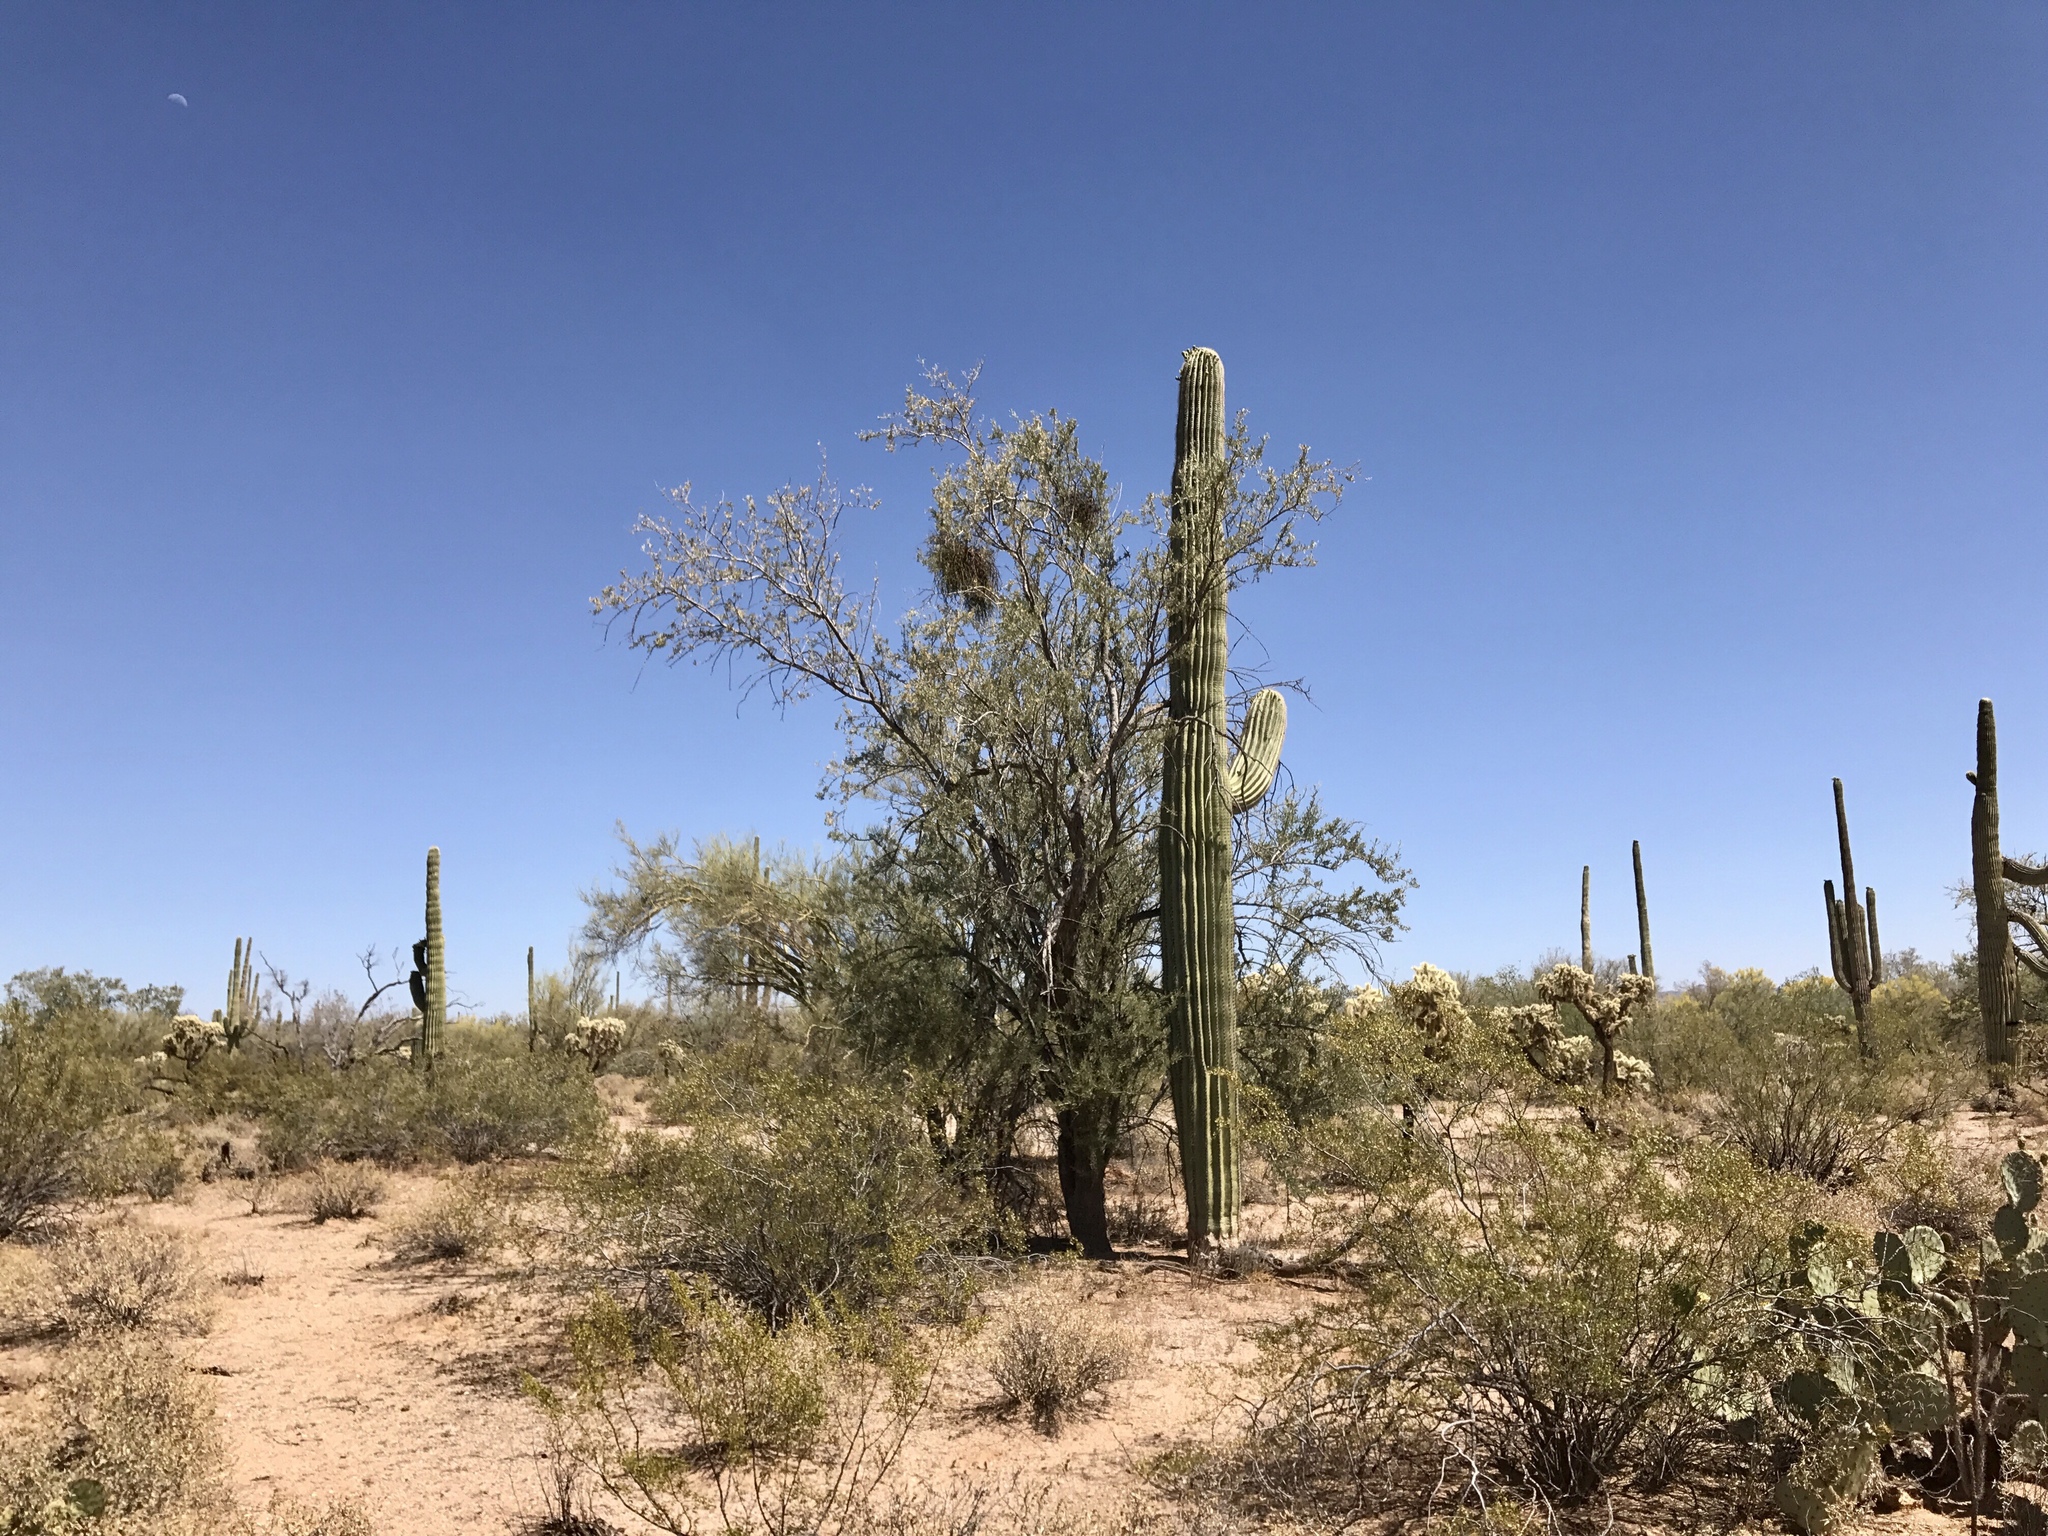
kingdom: Plantae
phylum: Tracheophyta
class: Magnoliopsida
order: Fabales
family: Fabaceae
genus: Olneya
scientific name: Olneya tesota
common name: Desert ironwood
